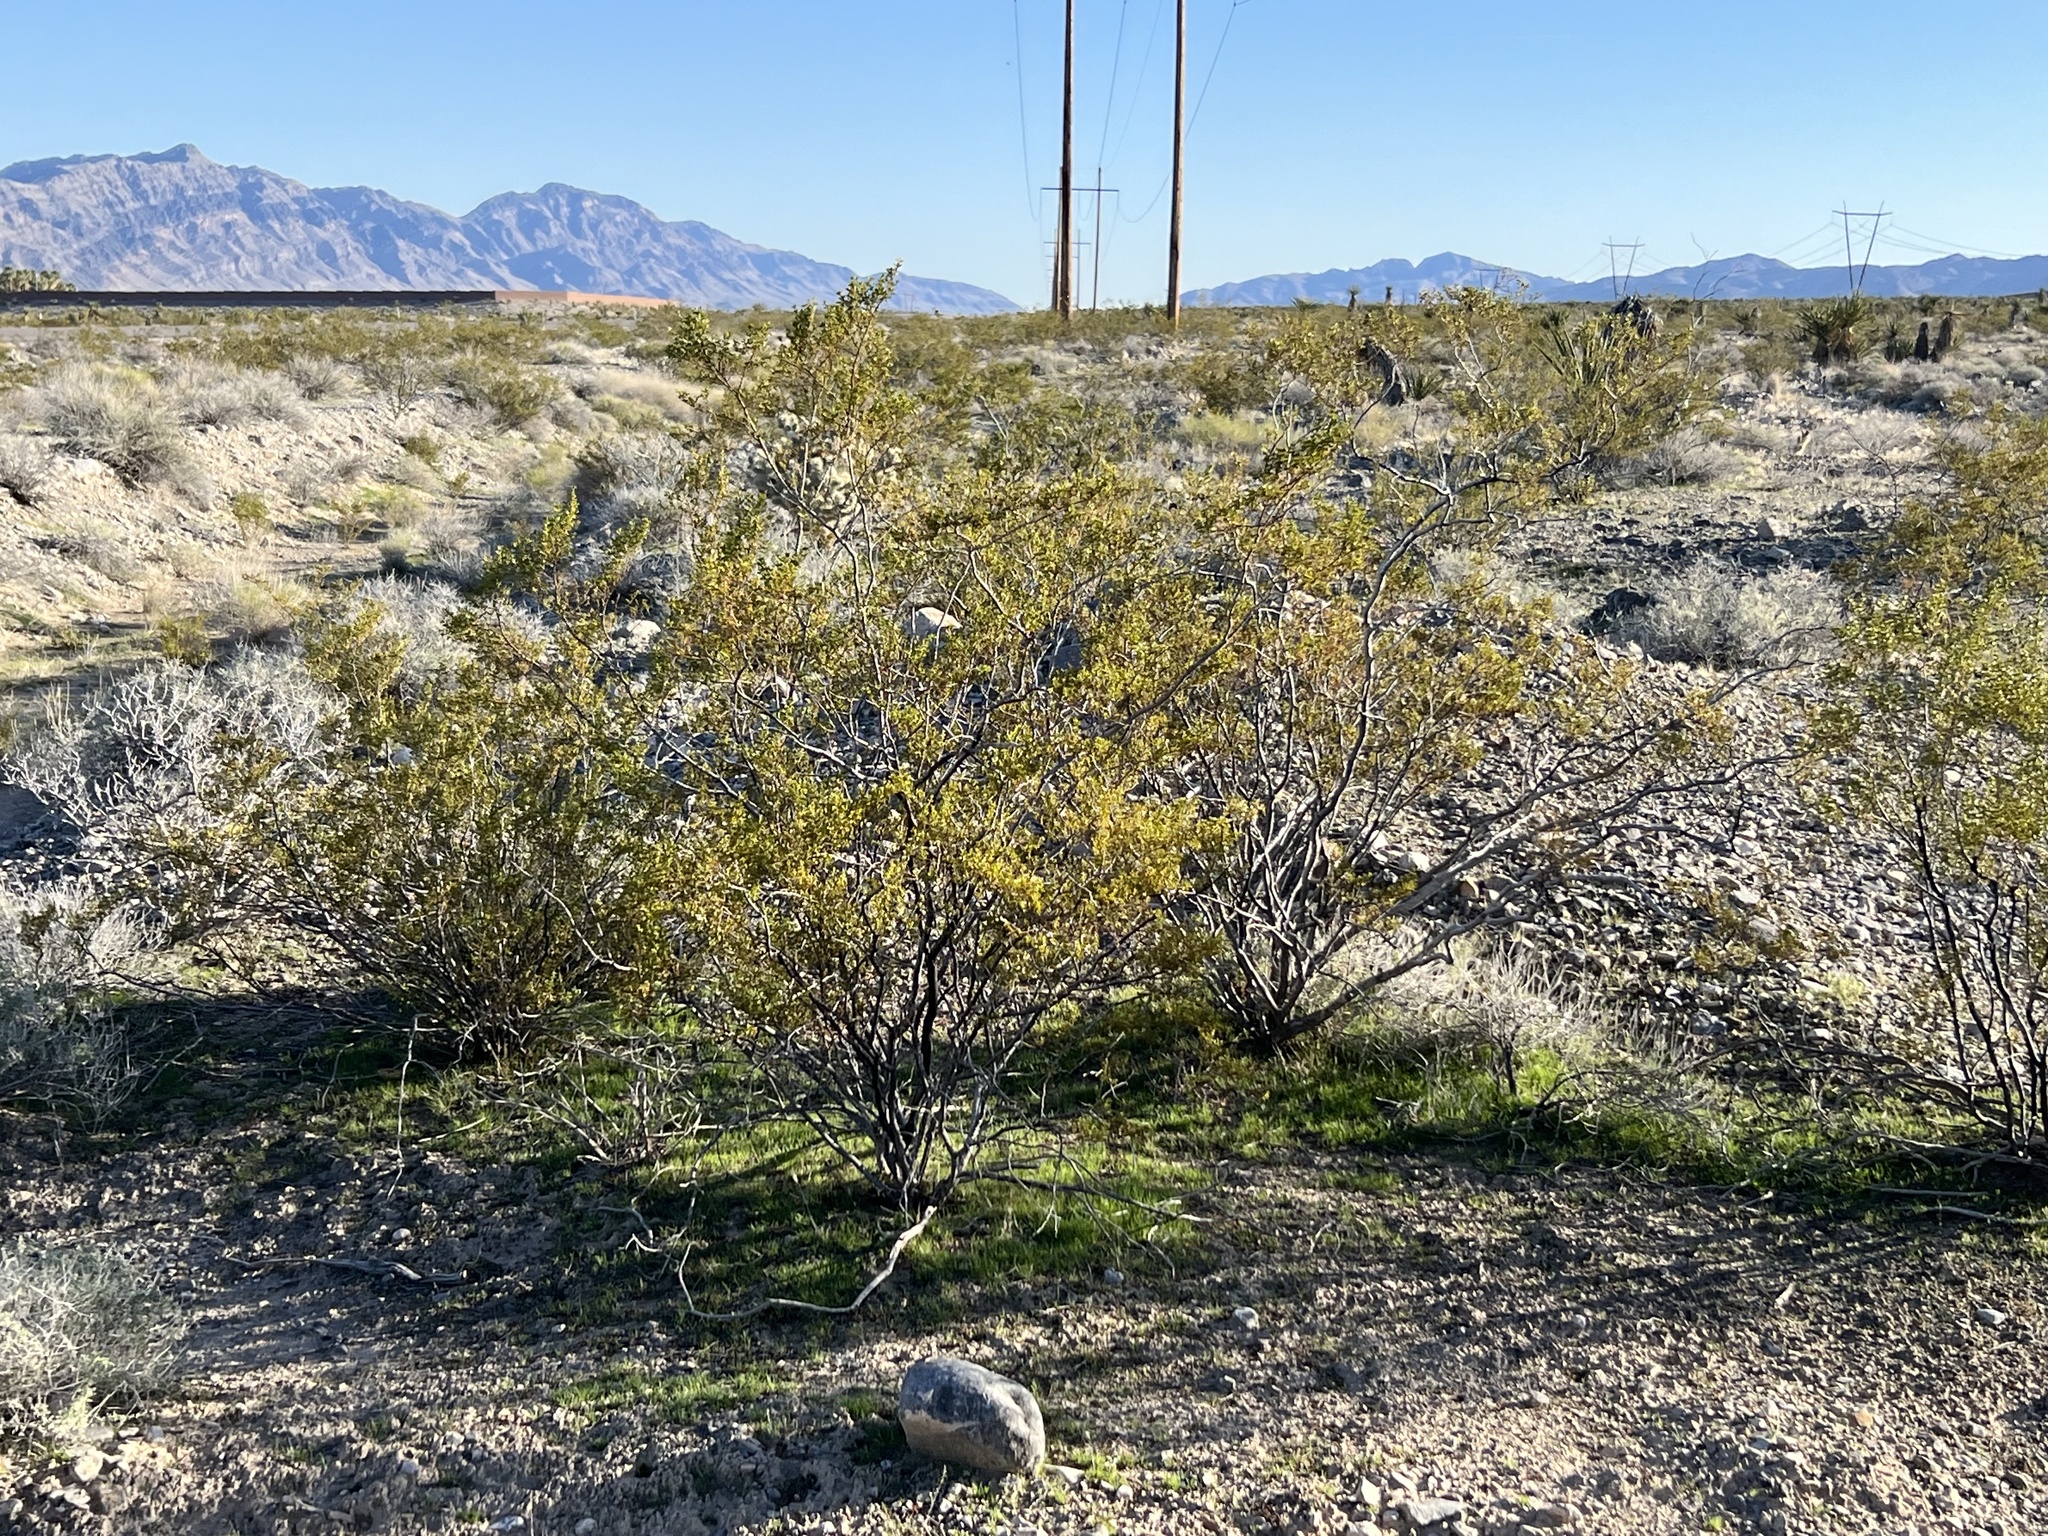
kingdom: Plantae
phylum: Tracheophyta
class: Magnoliopsida
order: Zygophyllales
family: Zygophyllaceae
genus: Larrea
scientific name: Larrea tridentata
